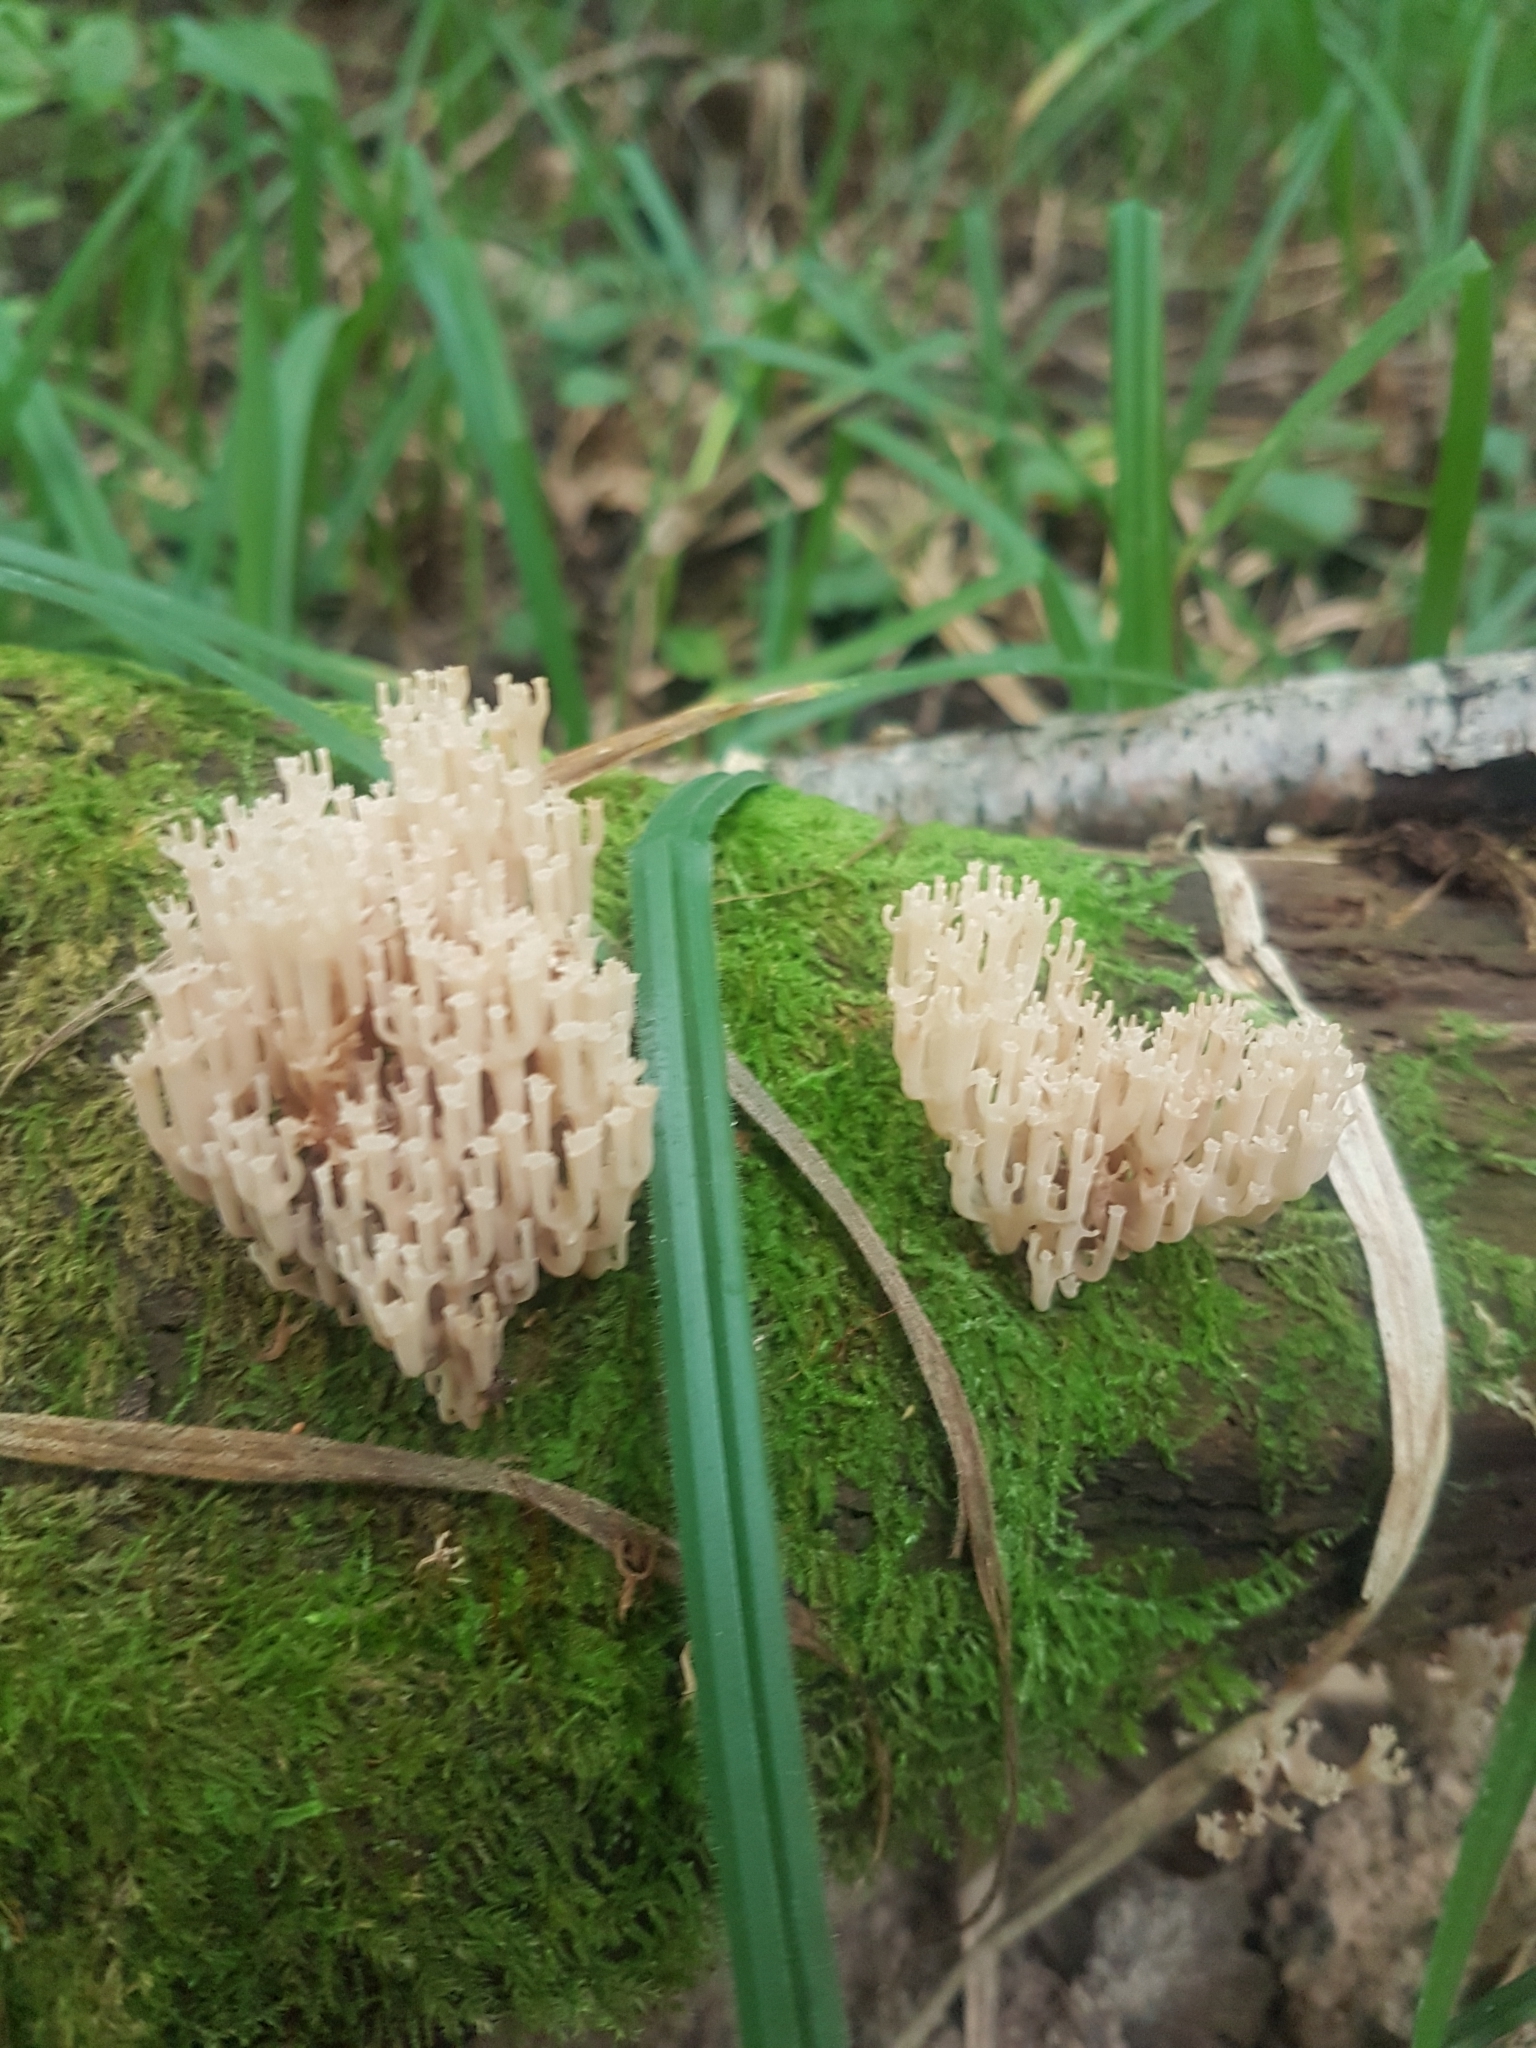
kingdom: Fungi
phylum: Basidiomycota
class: Agaricomycetes
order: Russulales
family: Auriscalpiaceae
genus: Artomyces
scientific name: Artomyces pyxidatus
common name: Crown-tipped coral fungus
